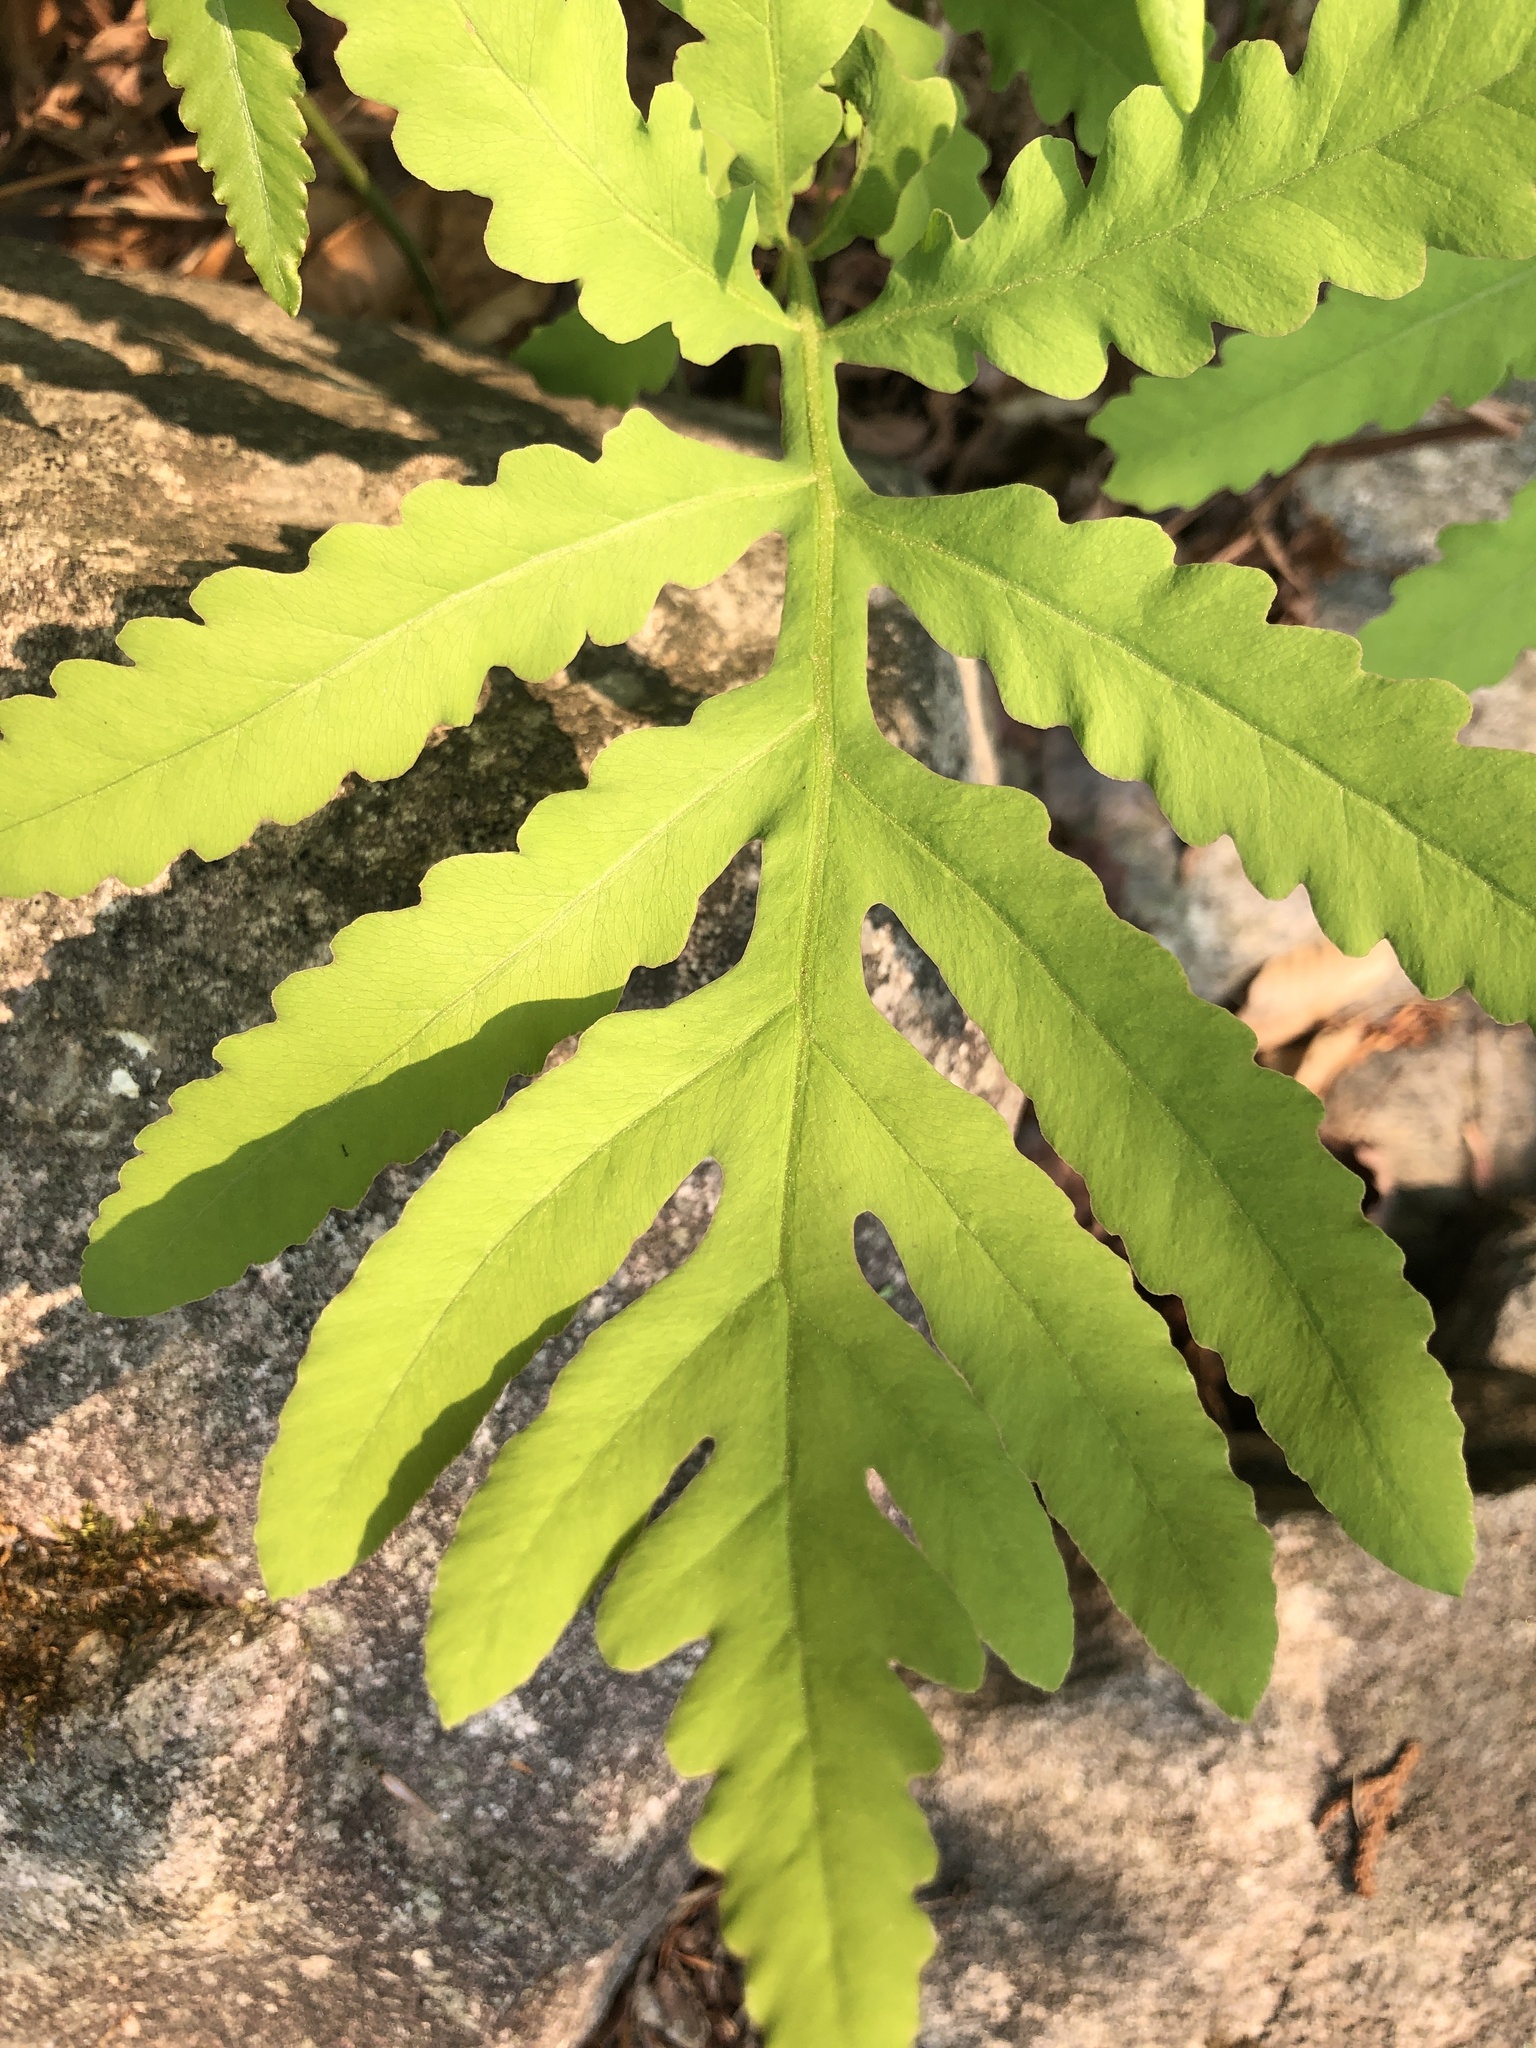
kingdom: Plantae
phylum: Tracheophyta
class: Polypodiopsida
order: Polypodiales
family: Onocleaceae
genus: Onoclea
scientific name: Onoclea sensibilis
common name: Sensitive fern
